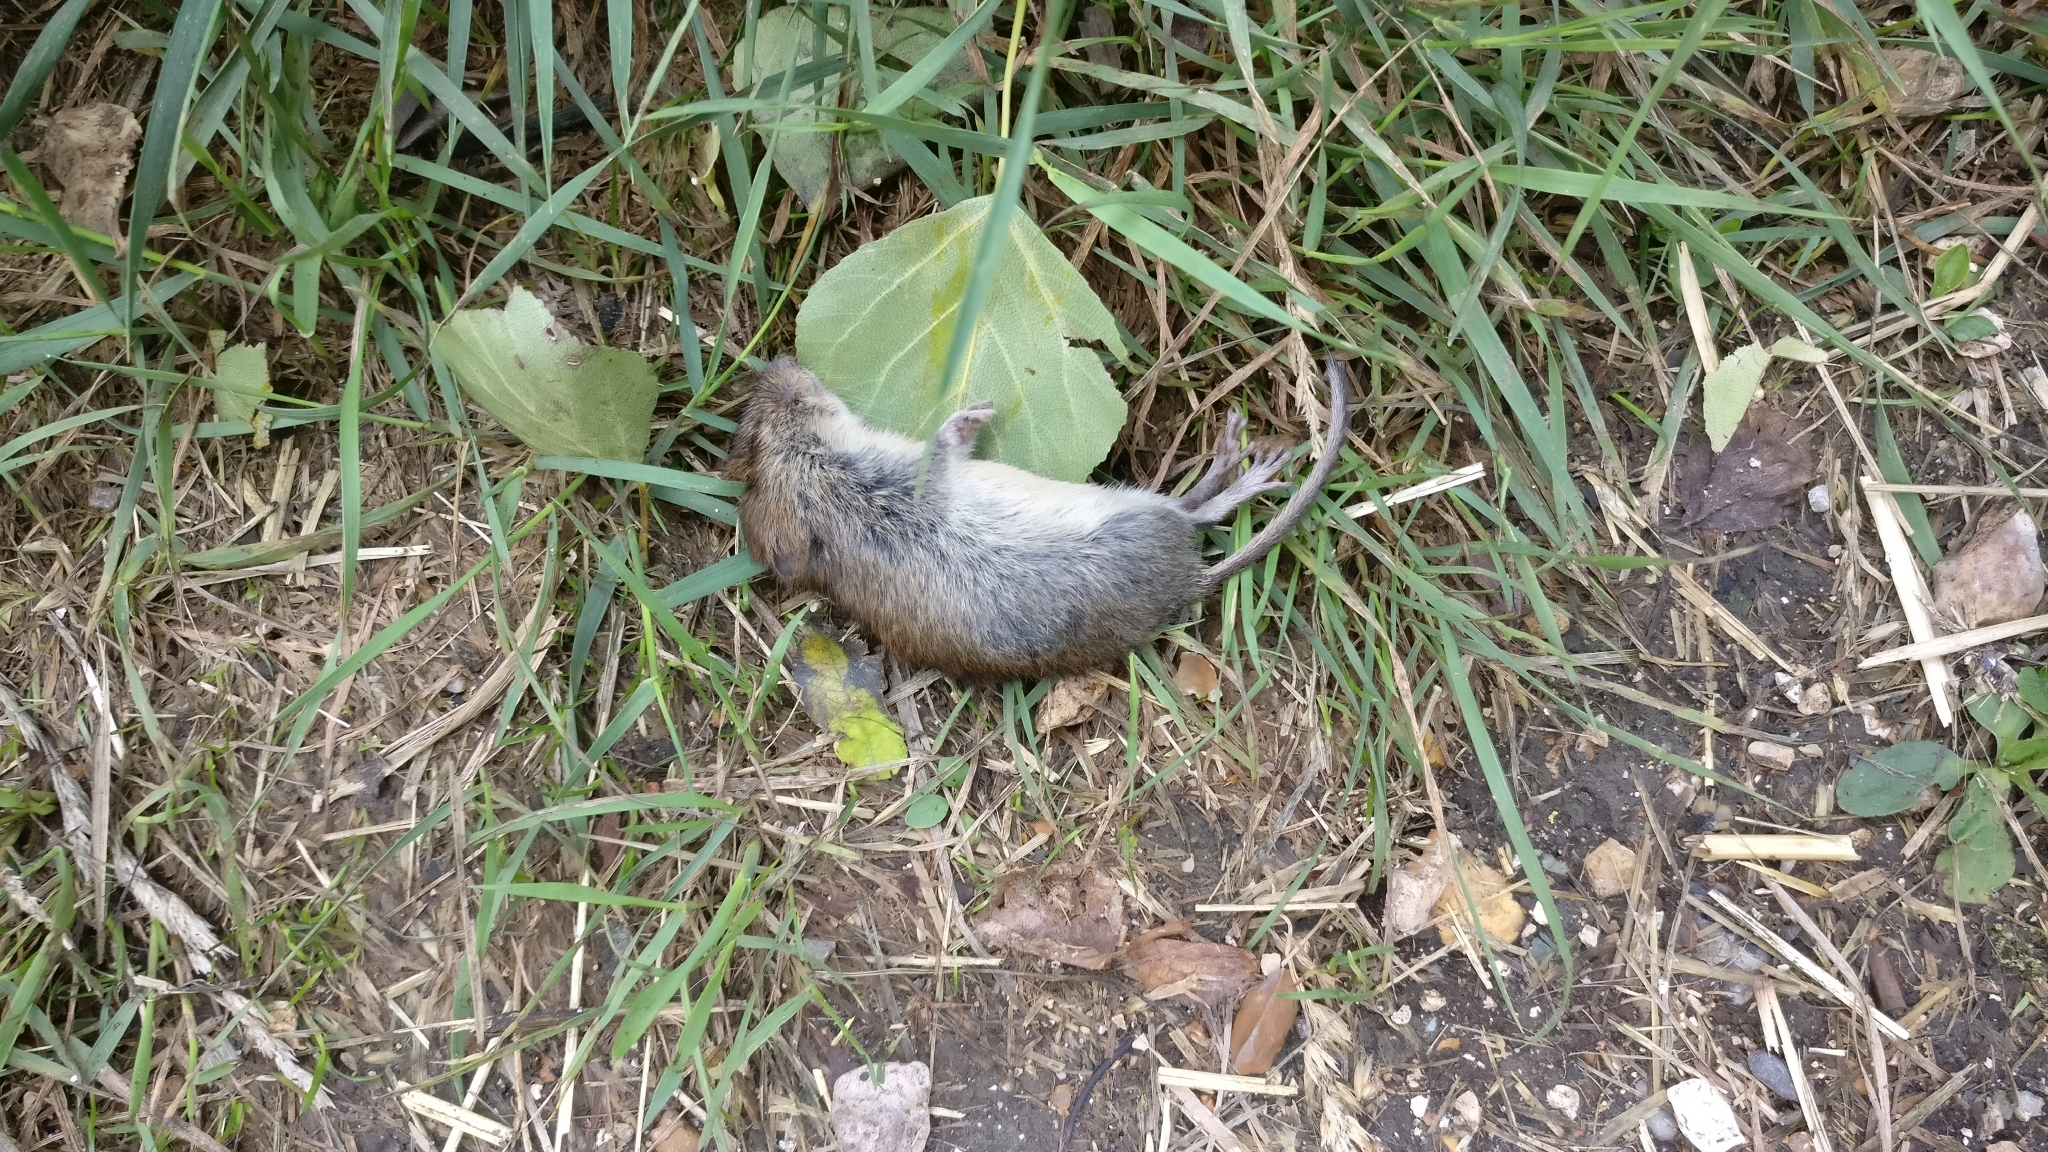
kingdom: Animalia
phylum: Chordata
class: Mammalia
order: Rodentia
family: Cricetidae
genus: Myodes
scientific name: Myodes glareolus
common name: Bank vole
